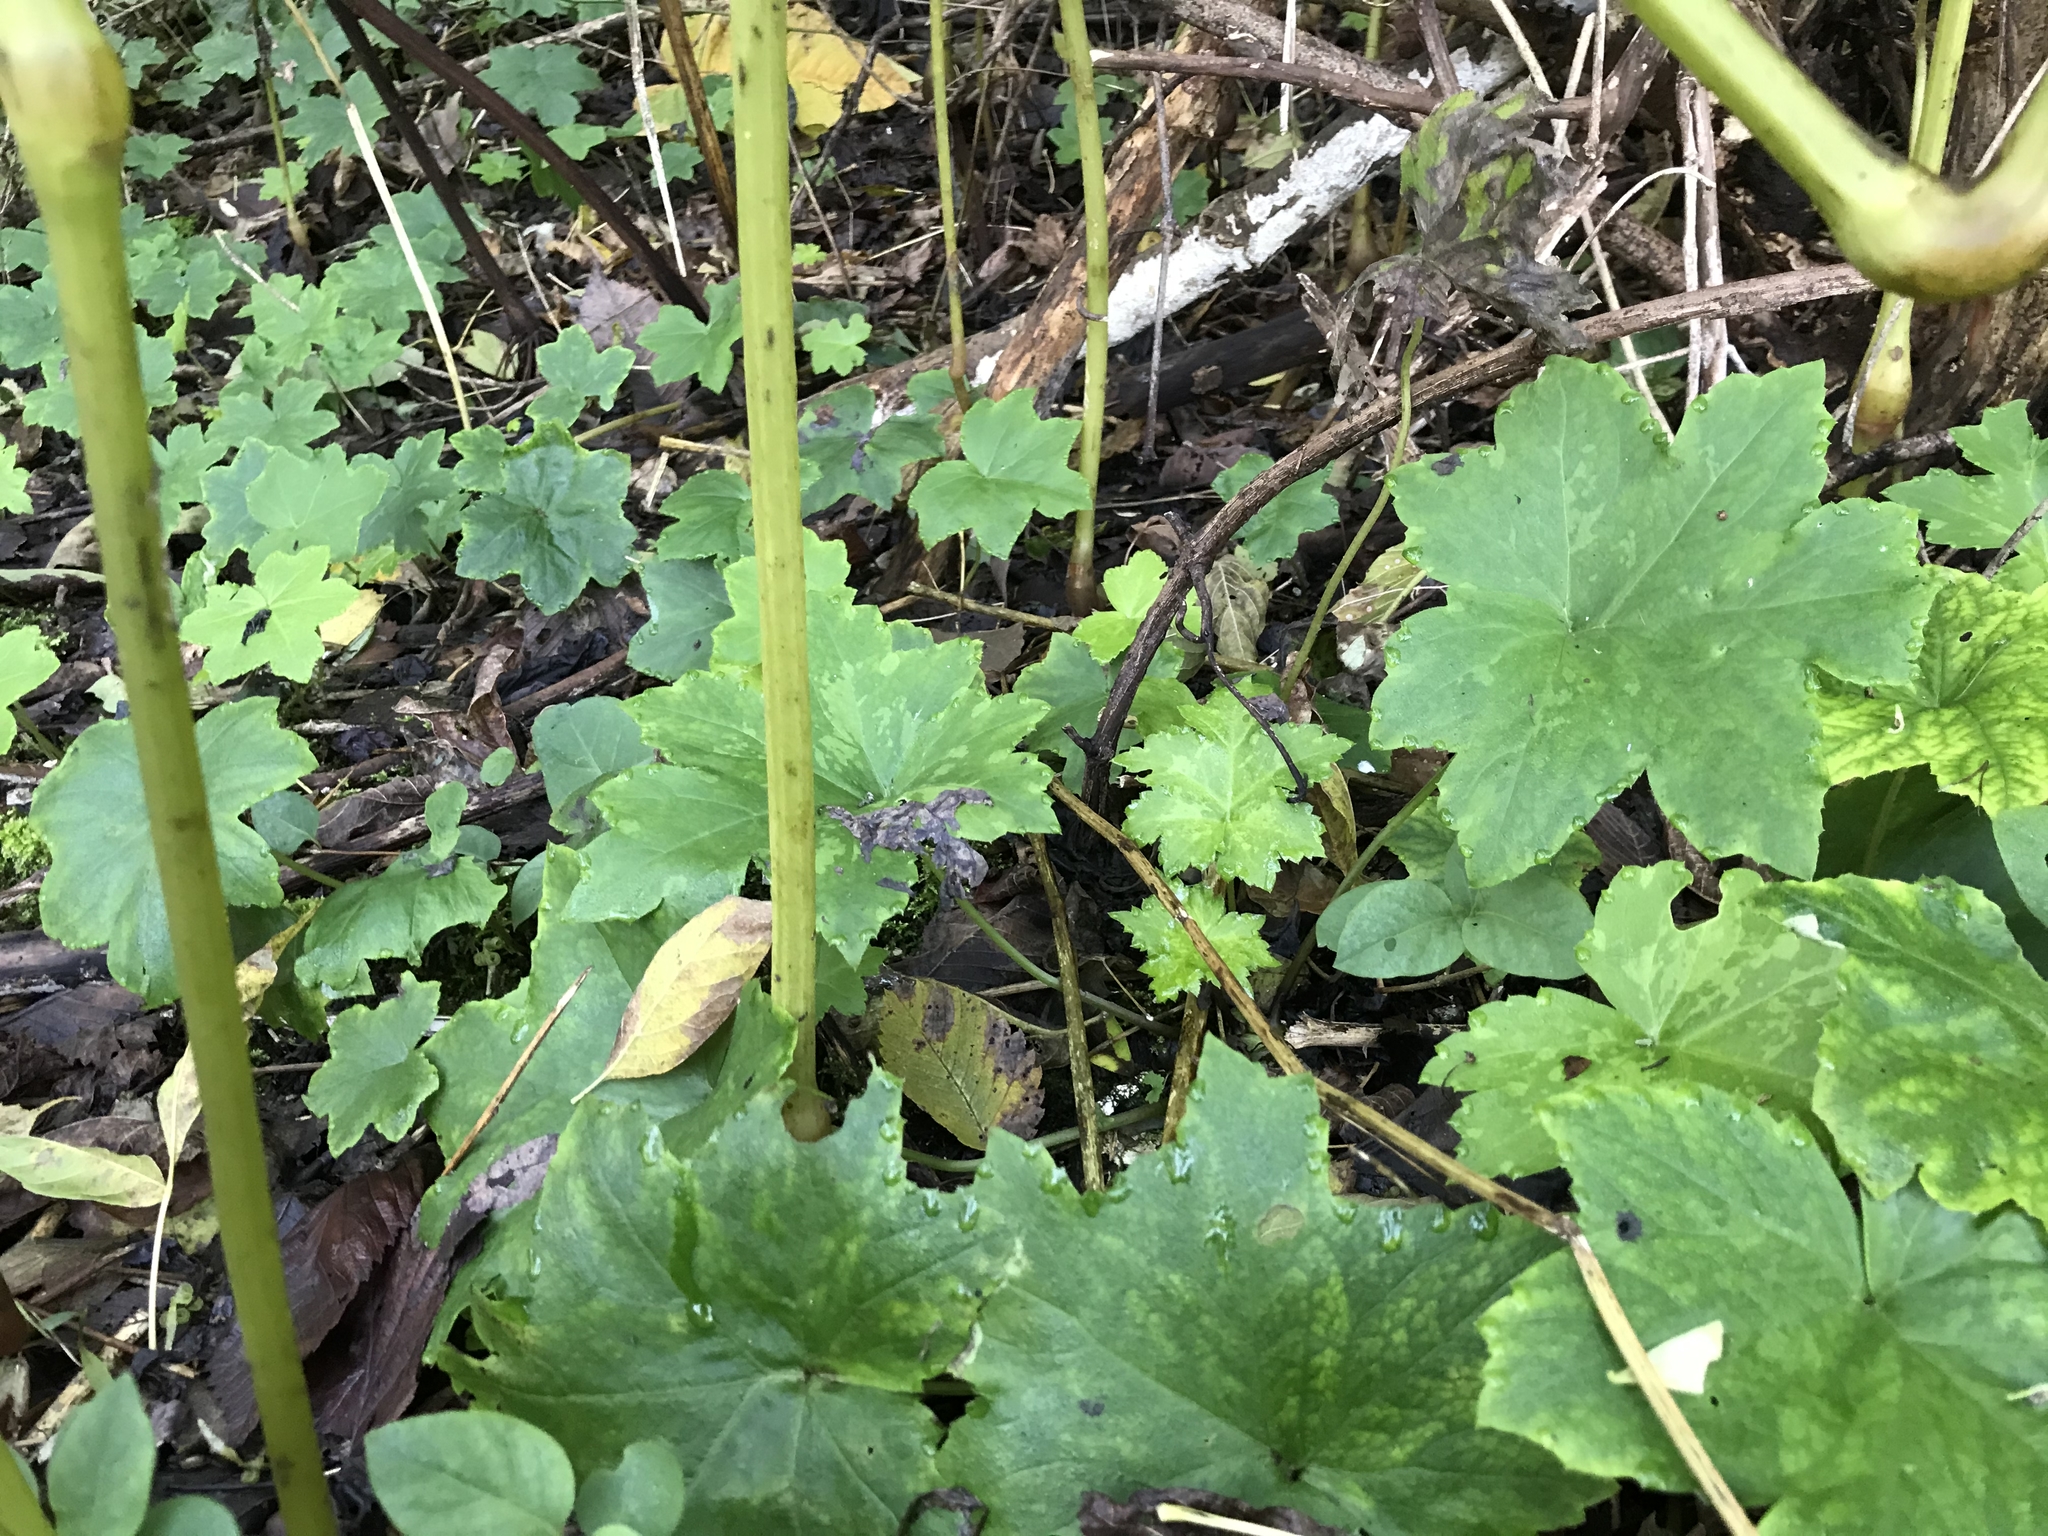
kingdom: Plantae
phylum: Tracheophyta
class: Magnoliopsida
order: Boraginales
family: Hydrophyllaceae
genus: Hydrophyllum
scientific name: Hydrophyllum canadense
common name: Canada waterleaf
